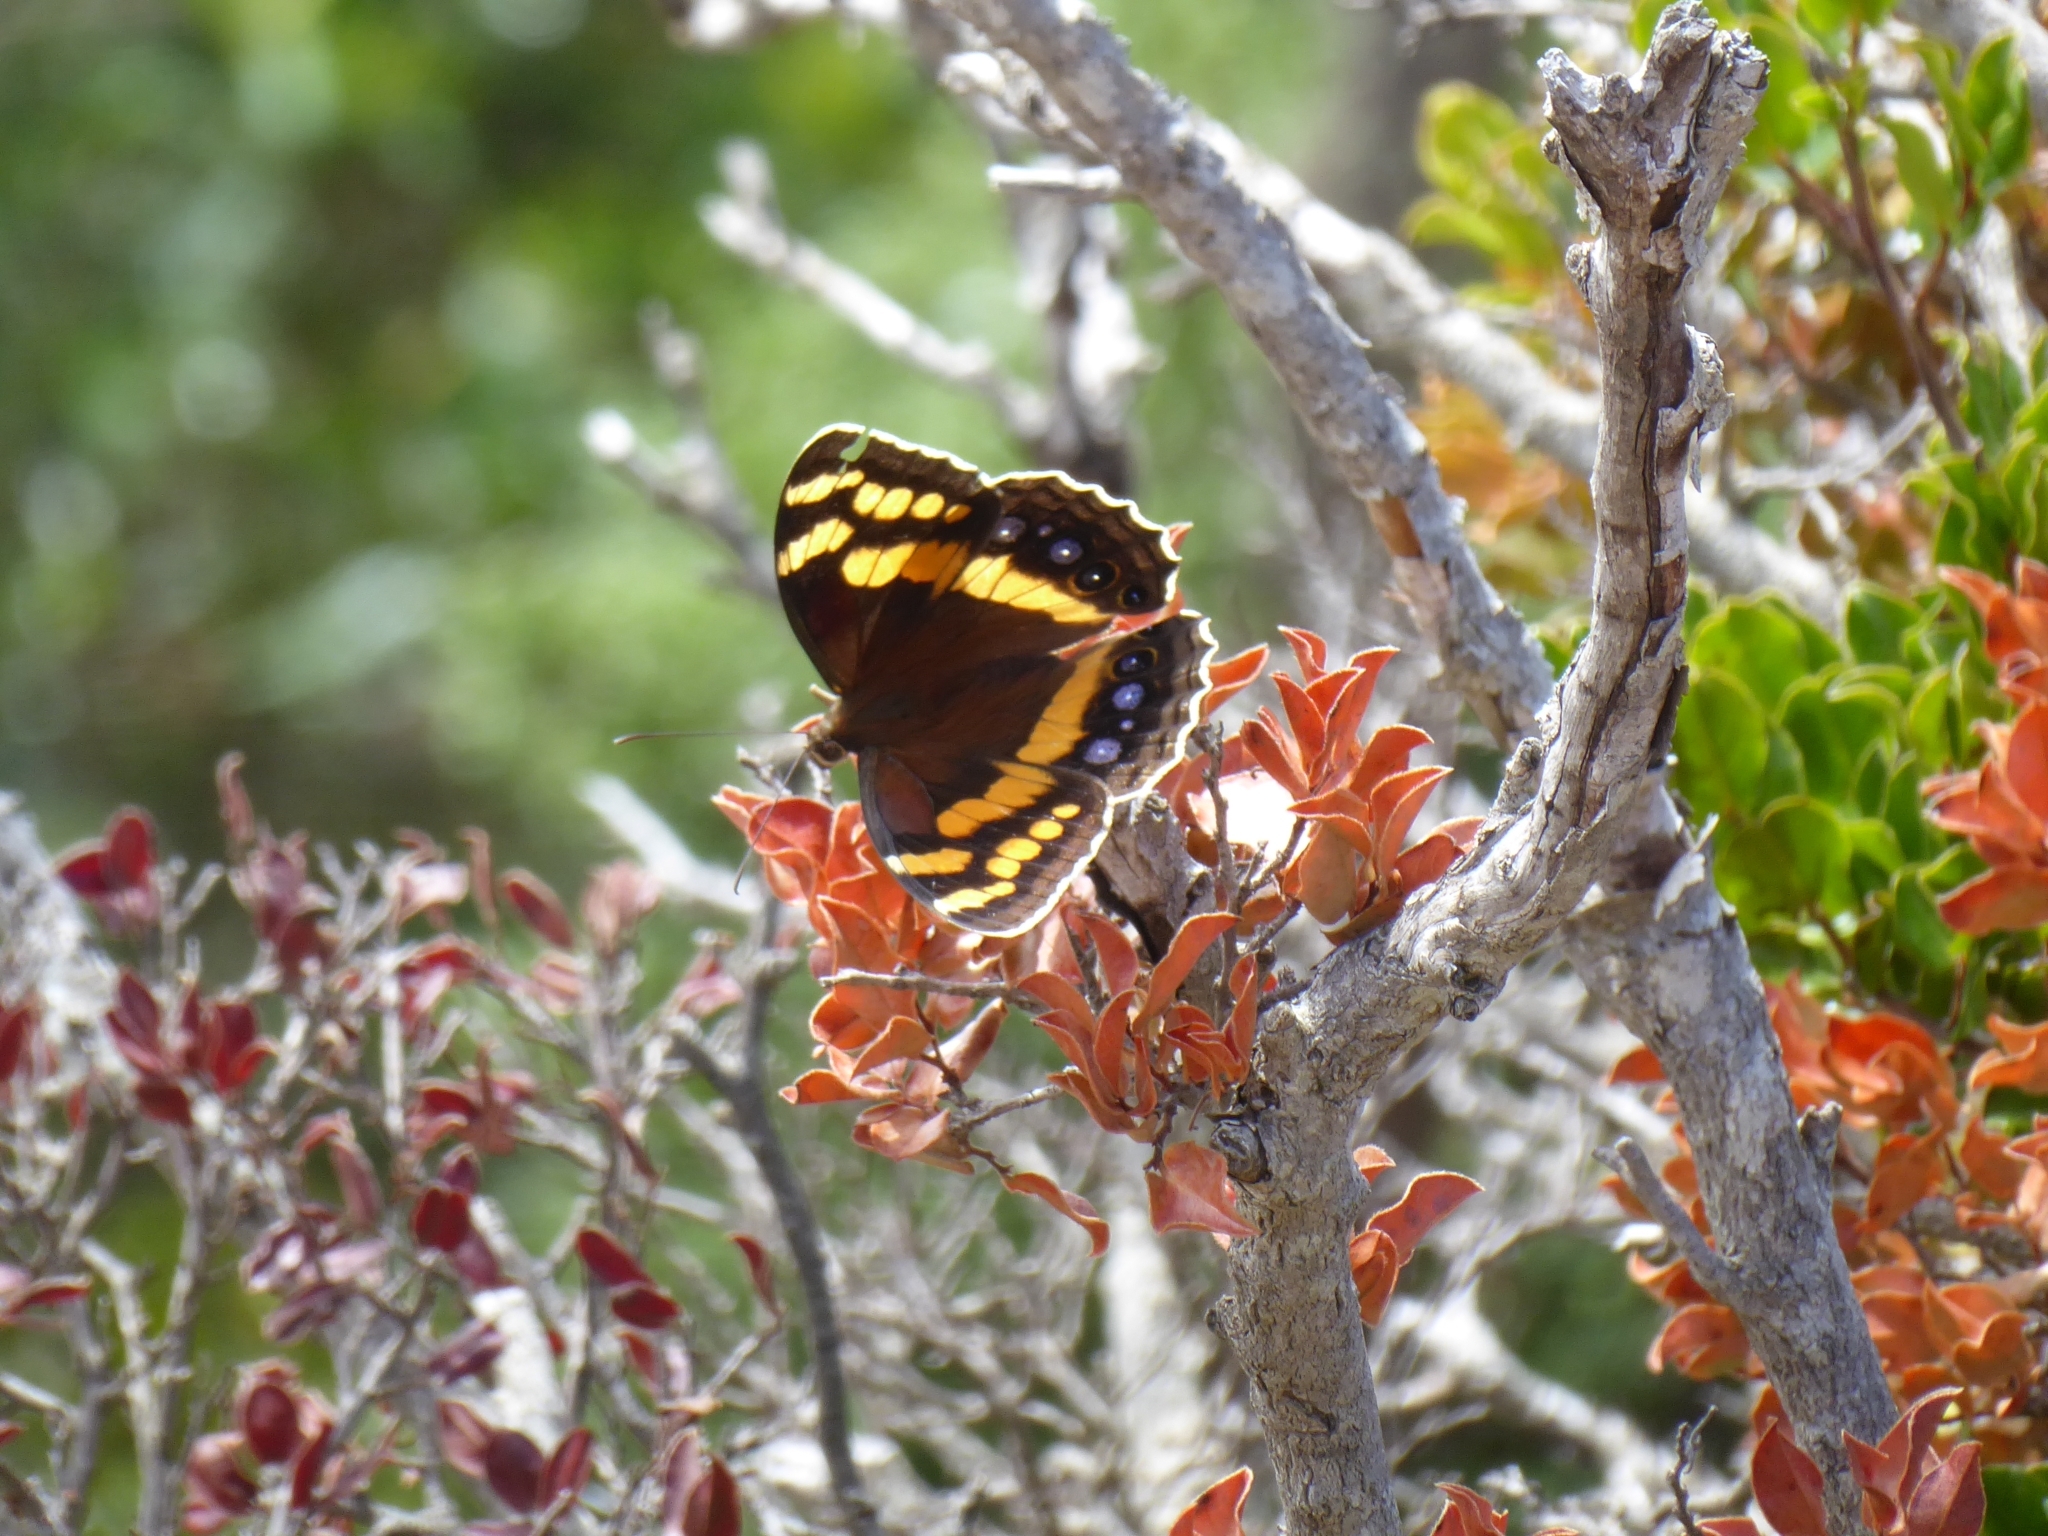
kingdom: Animalia
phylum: Arthropoda
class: Insecta
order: Lepidoptera
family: Nymphalidae
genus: Meneris
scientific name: Meneris Aeropetes tulbaghia
